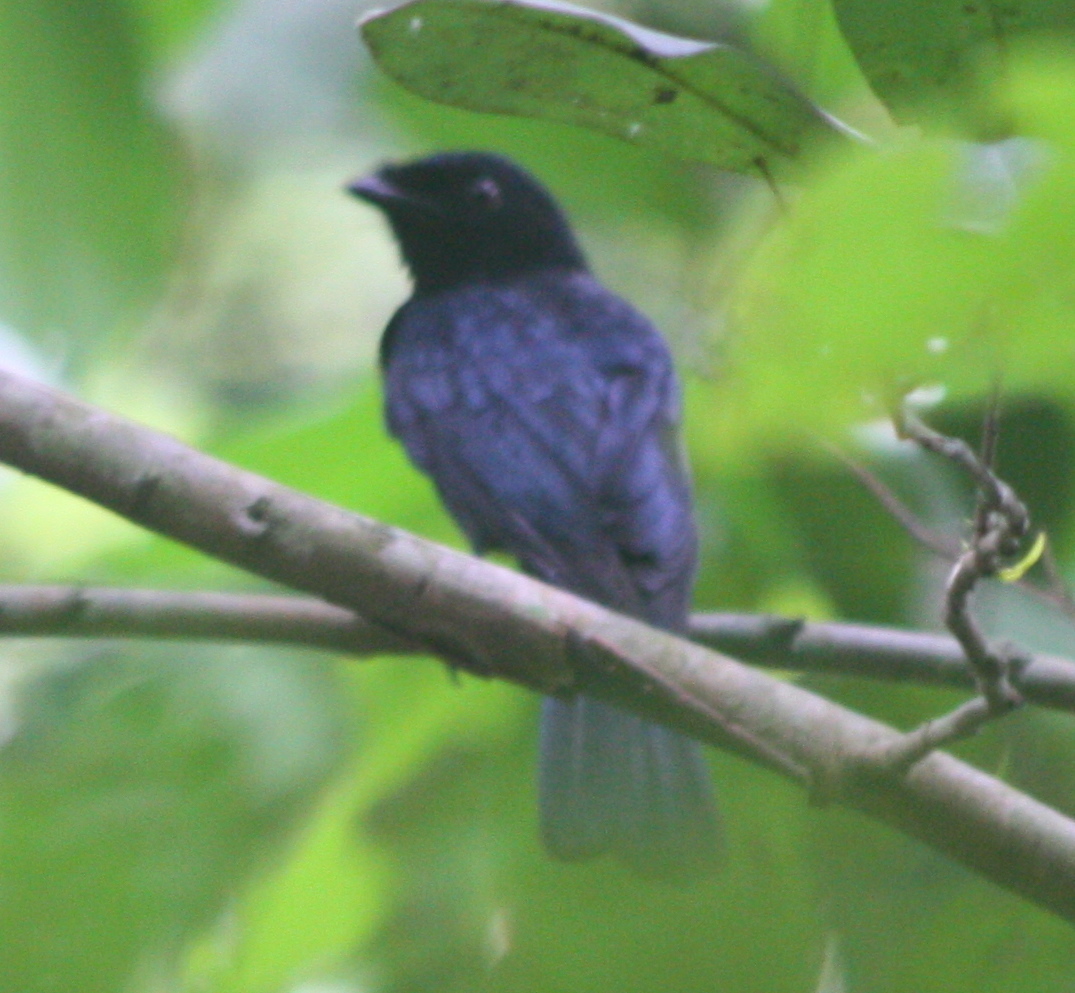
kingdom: Animalia
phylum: Chordata
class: Aves
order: Passeriformes
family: Dicruridae
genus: Dicrurus
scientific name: Dicrurus atripennis
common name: Shining drongo
